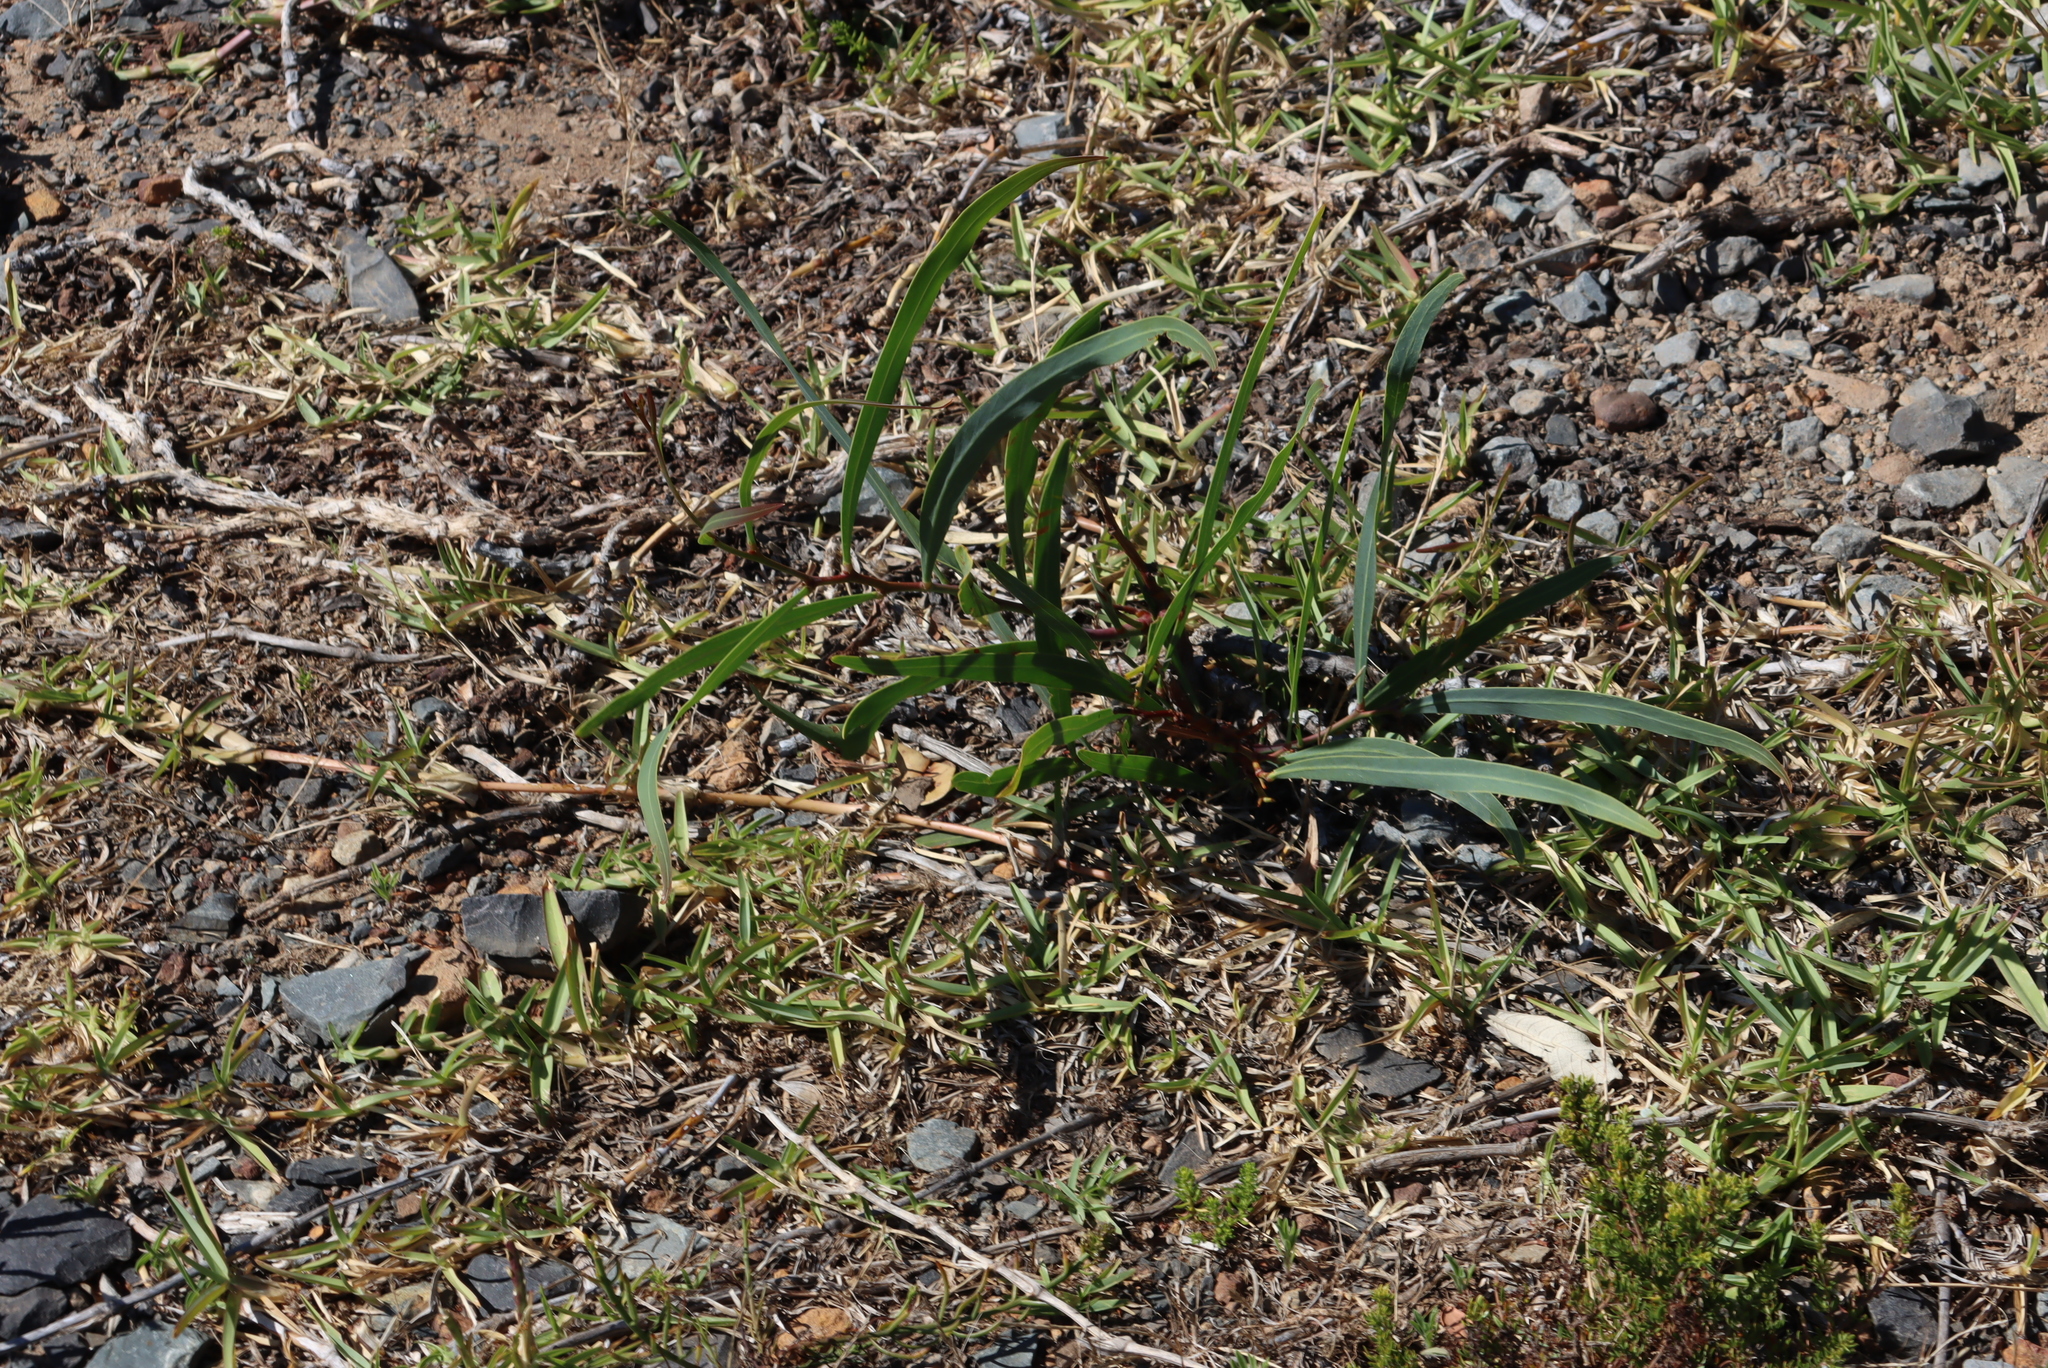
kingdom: Plantae
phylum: Tracheophyta
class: Magnoliopsida
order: Fabales
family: Fabaceae
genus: Acacia
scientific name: Acacia saligna
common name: Orange wattle
